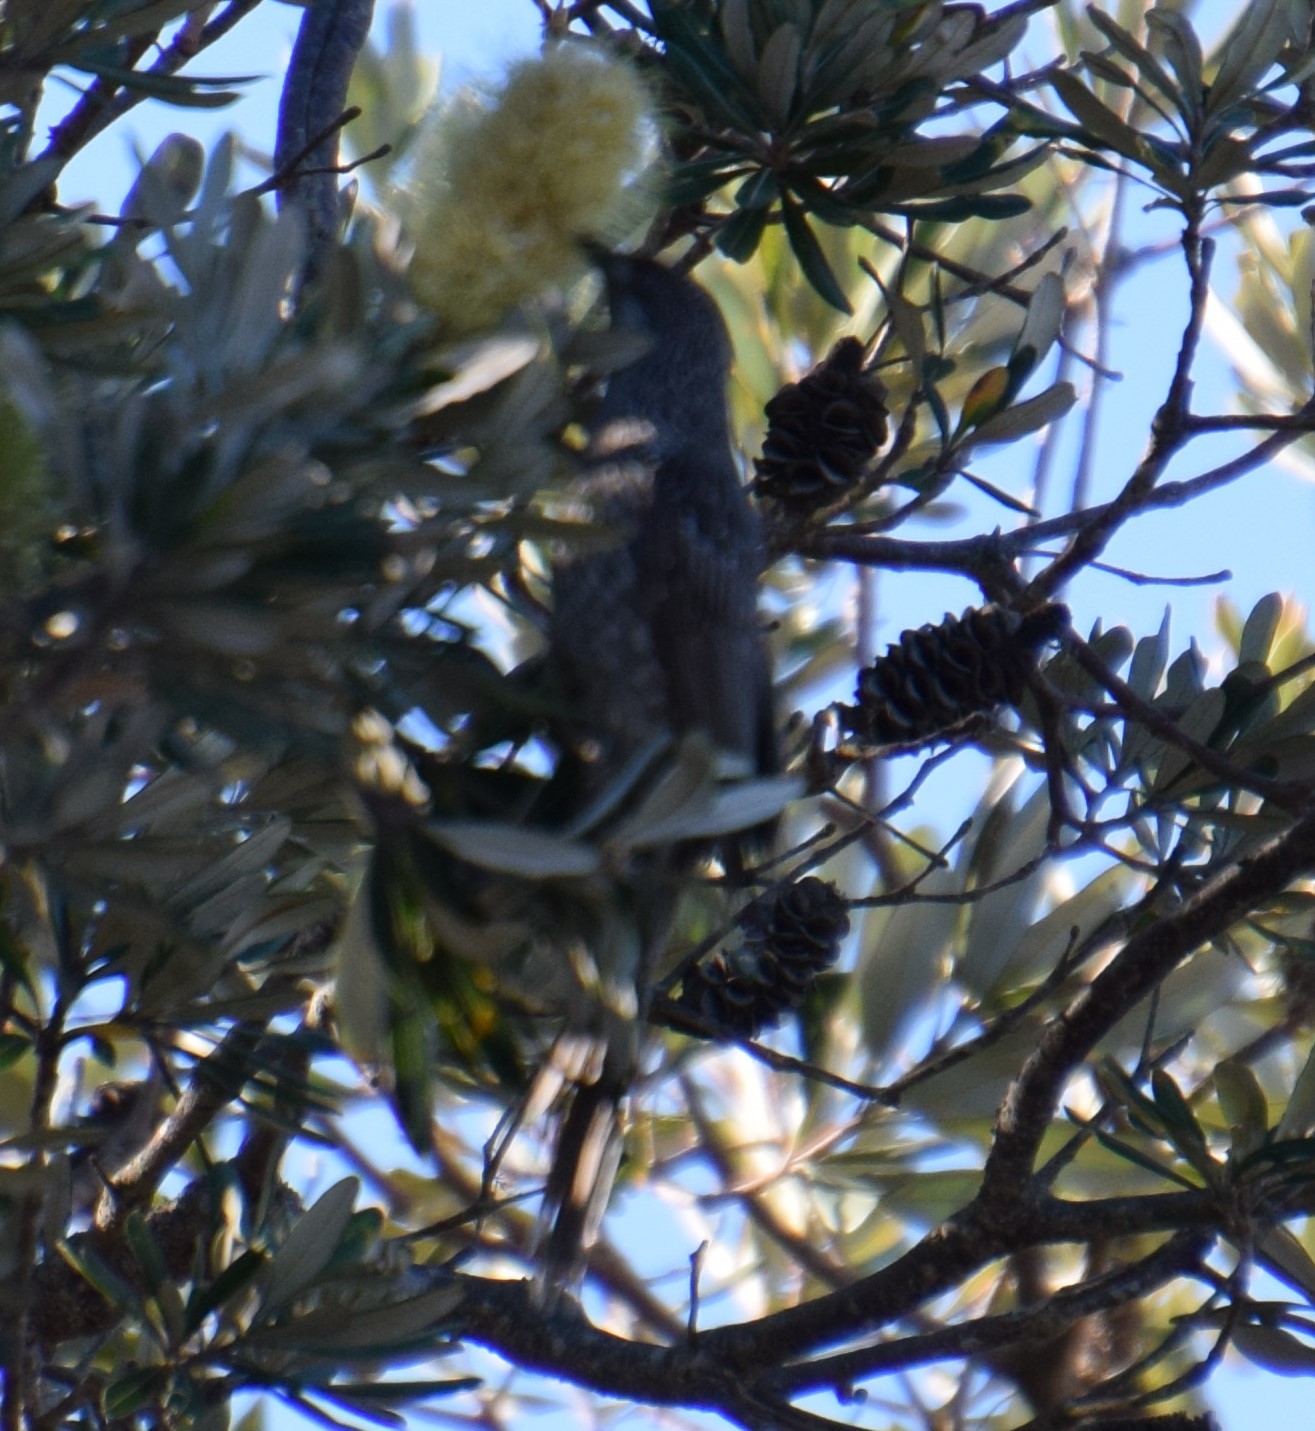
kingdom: Animalia
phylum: Chordata
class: Aves
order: Passeriformes
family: Meliphagidae
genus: Anthochaera
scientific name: Anthochaera chrysoptera
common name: Little wattlebird
